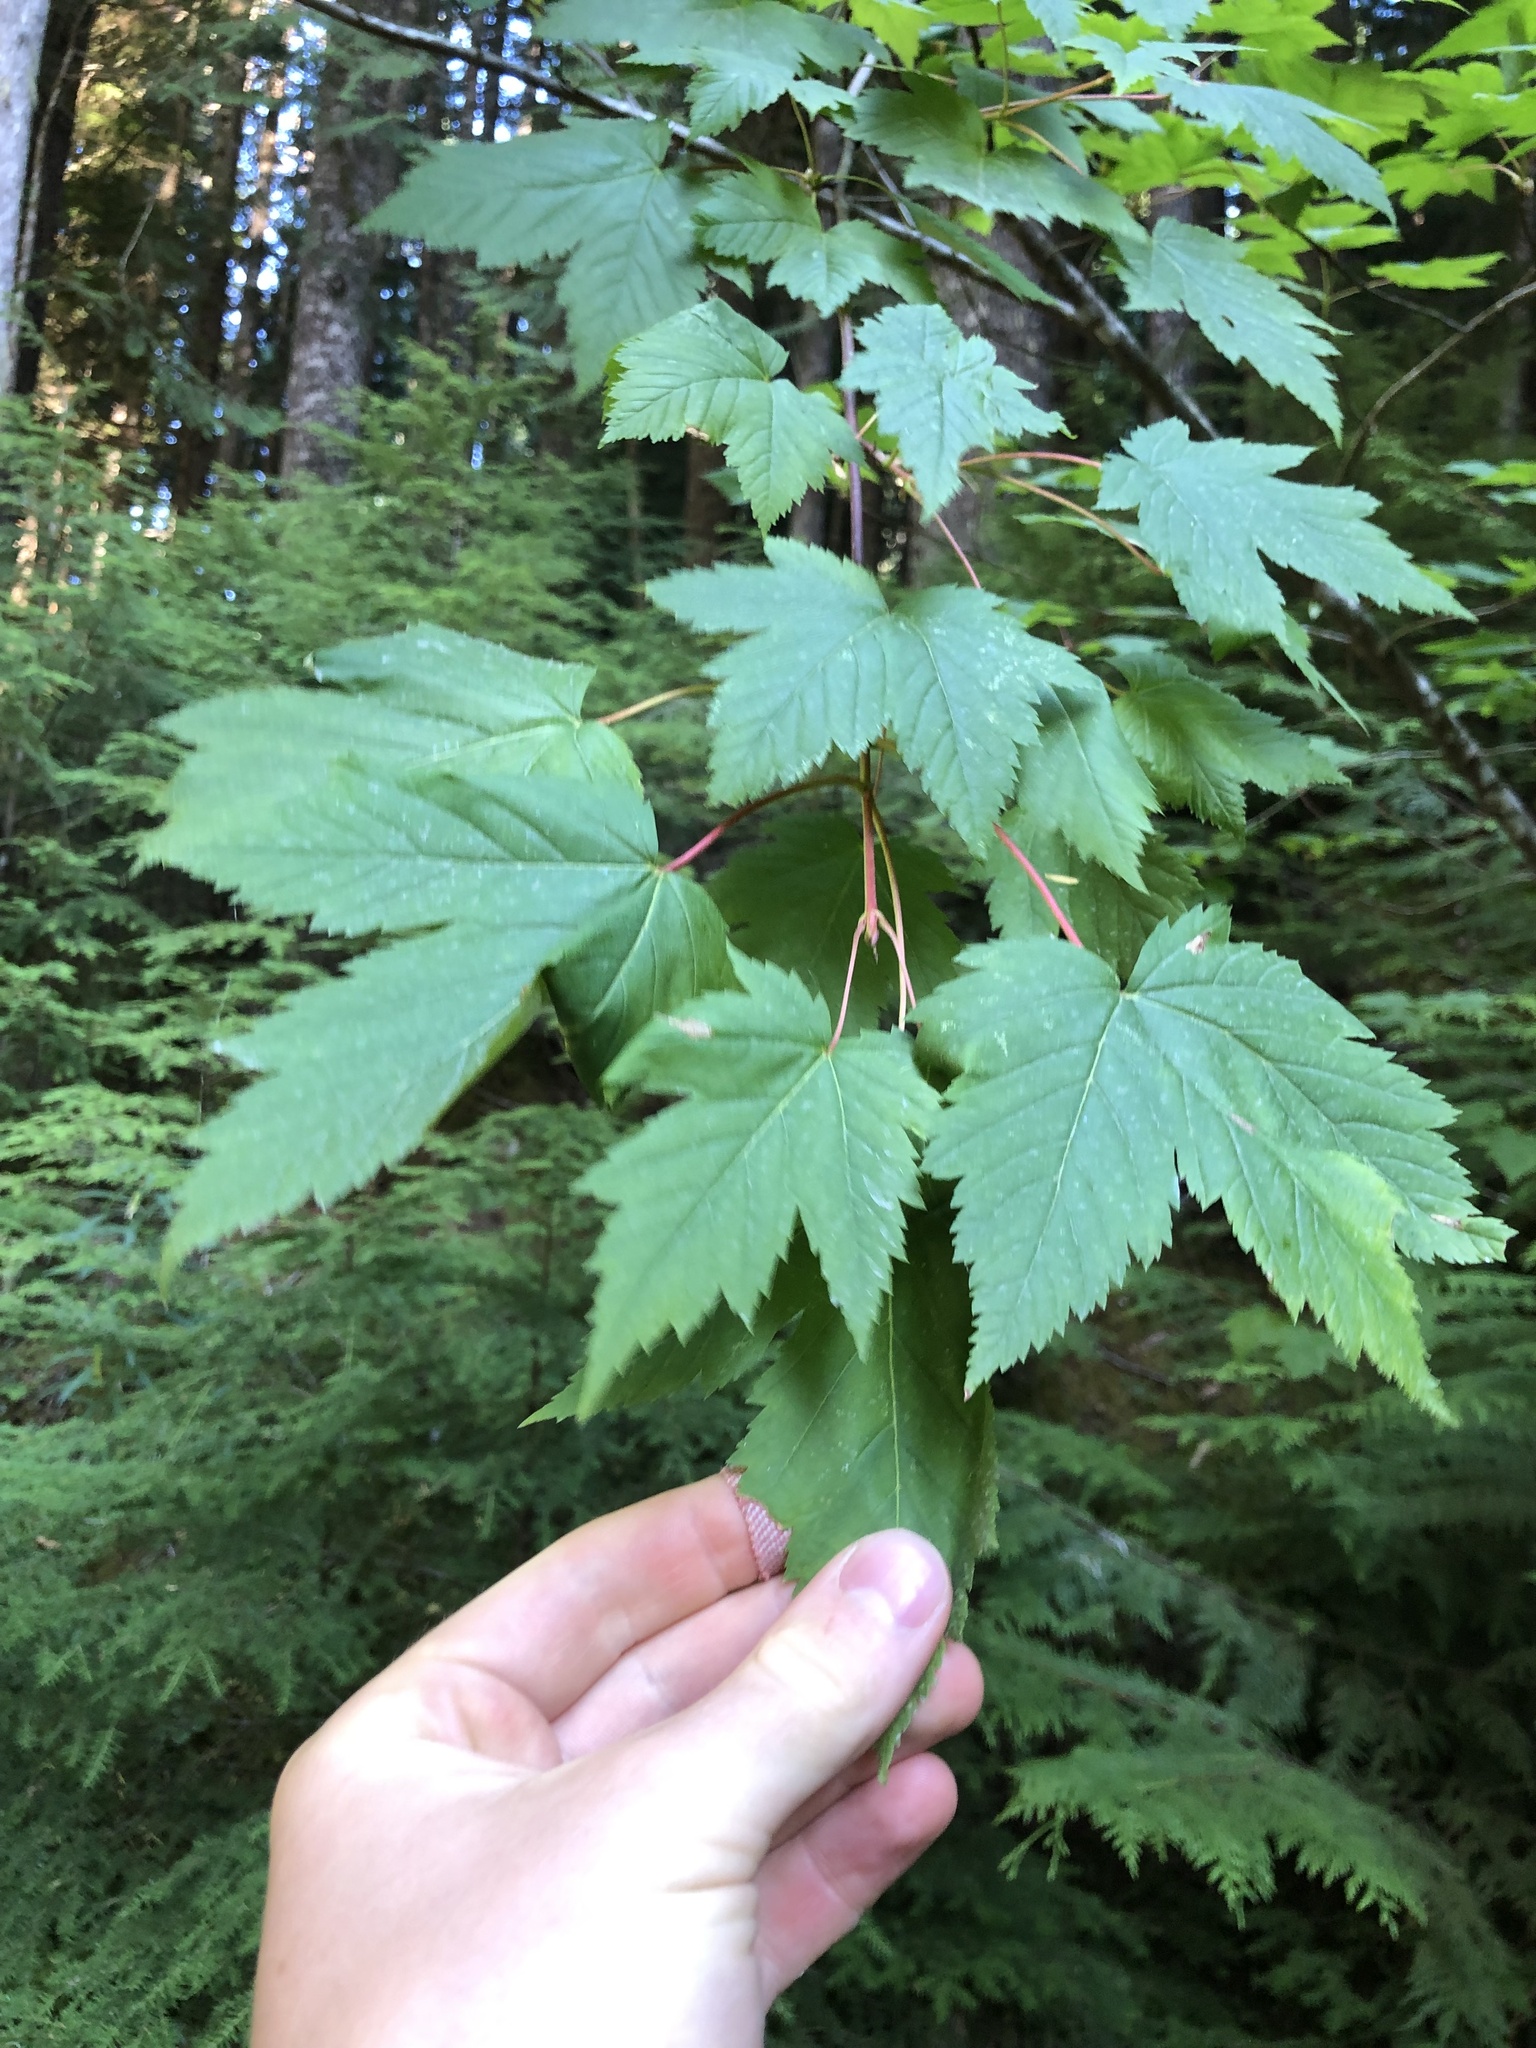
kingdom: Plantae
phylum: Tracheophyta
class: Magnoliopsida
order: Sapindales
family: Sapindaceae
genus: Acer
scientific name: Acer glabrum
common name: Rocky mountain maple
